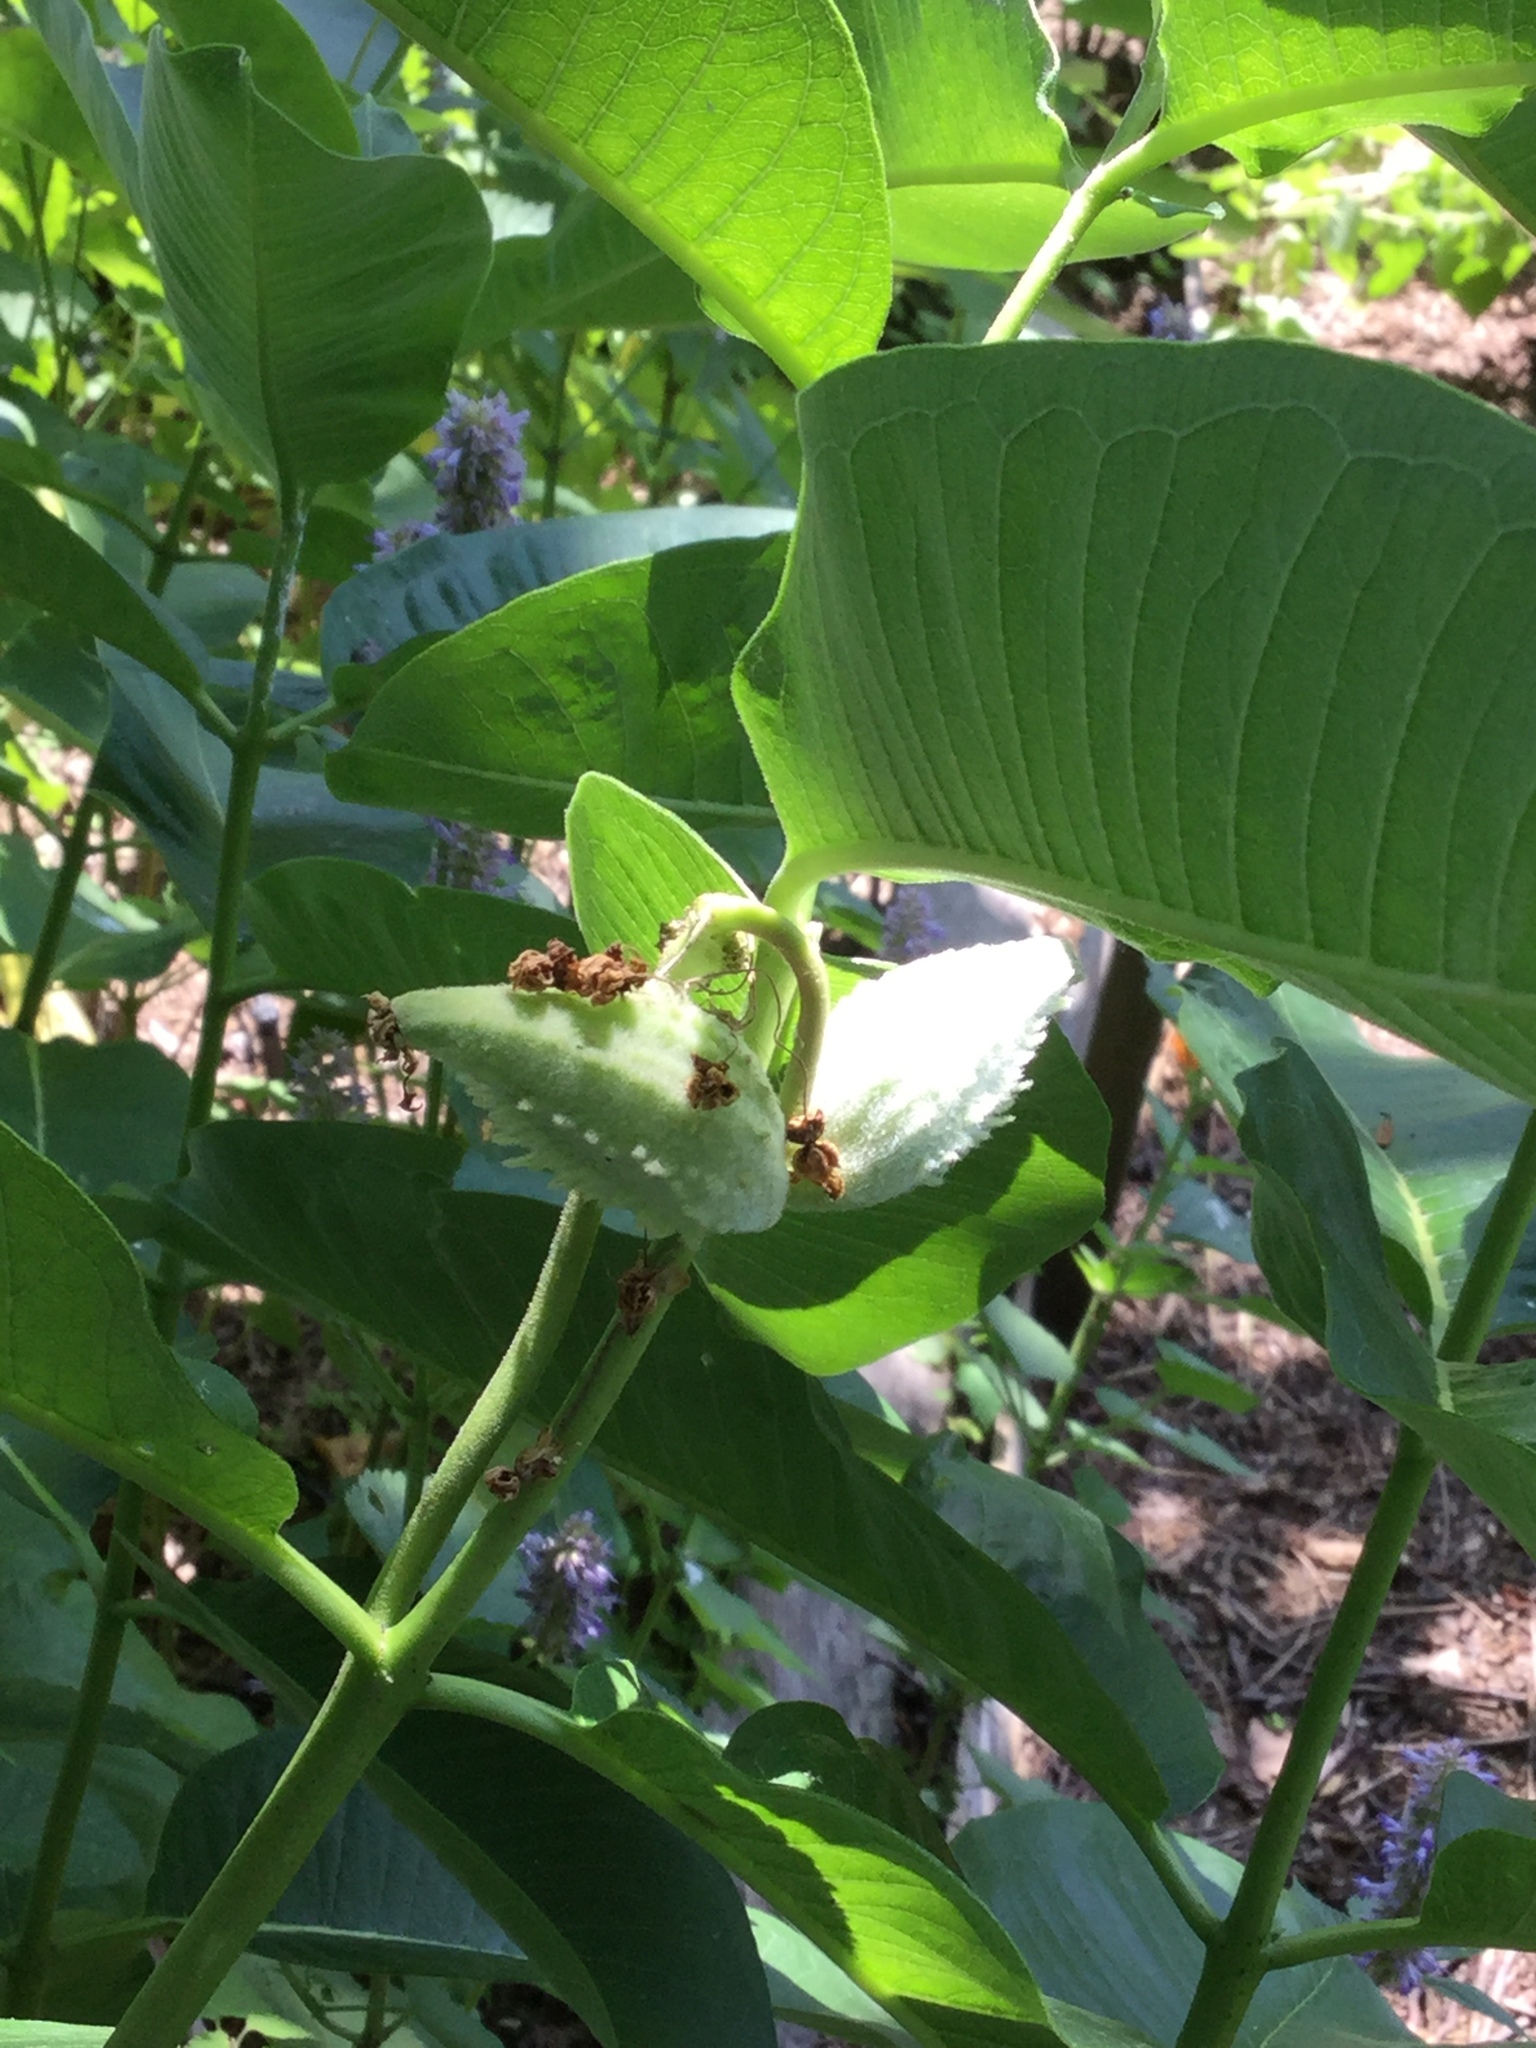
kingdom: Plantae
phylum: Tracheophyta
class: Magnoliopsida
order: Gentianales
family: Apocynaceae
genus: Asclepias
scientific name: Asclepias syriaca
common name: Common milkweed
